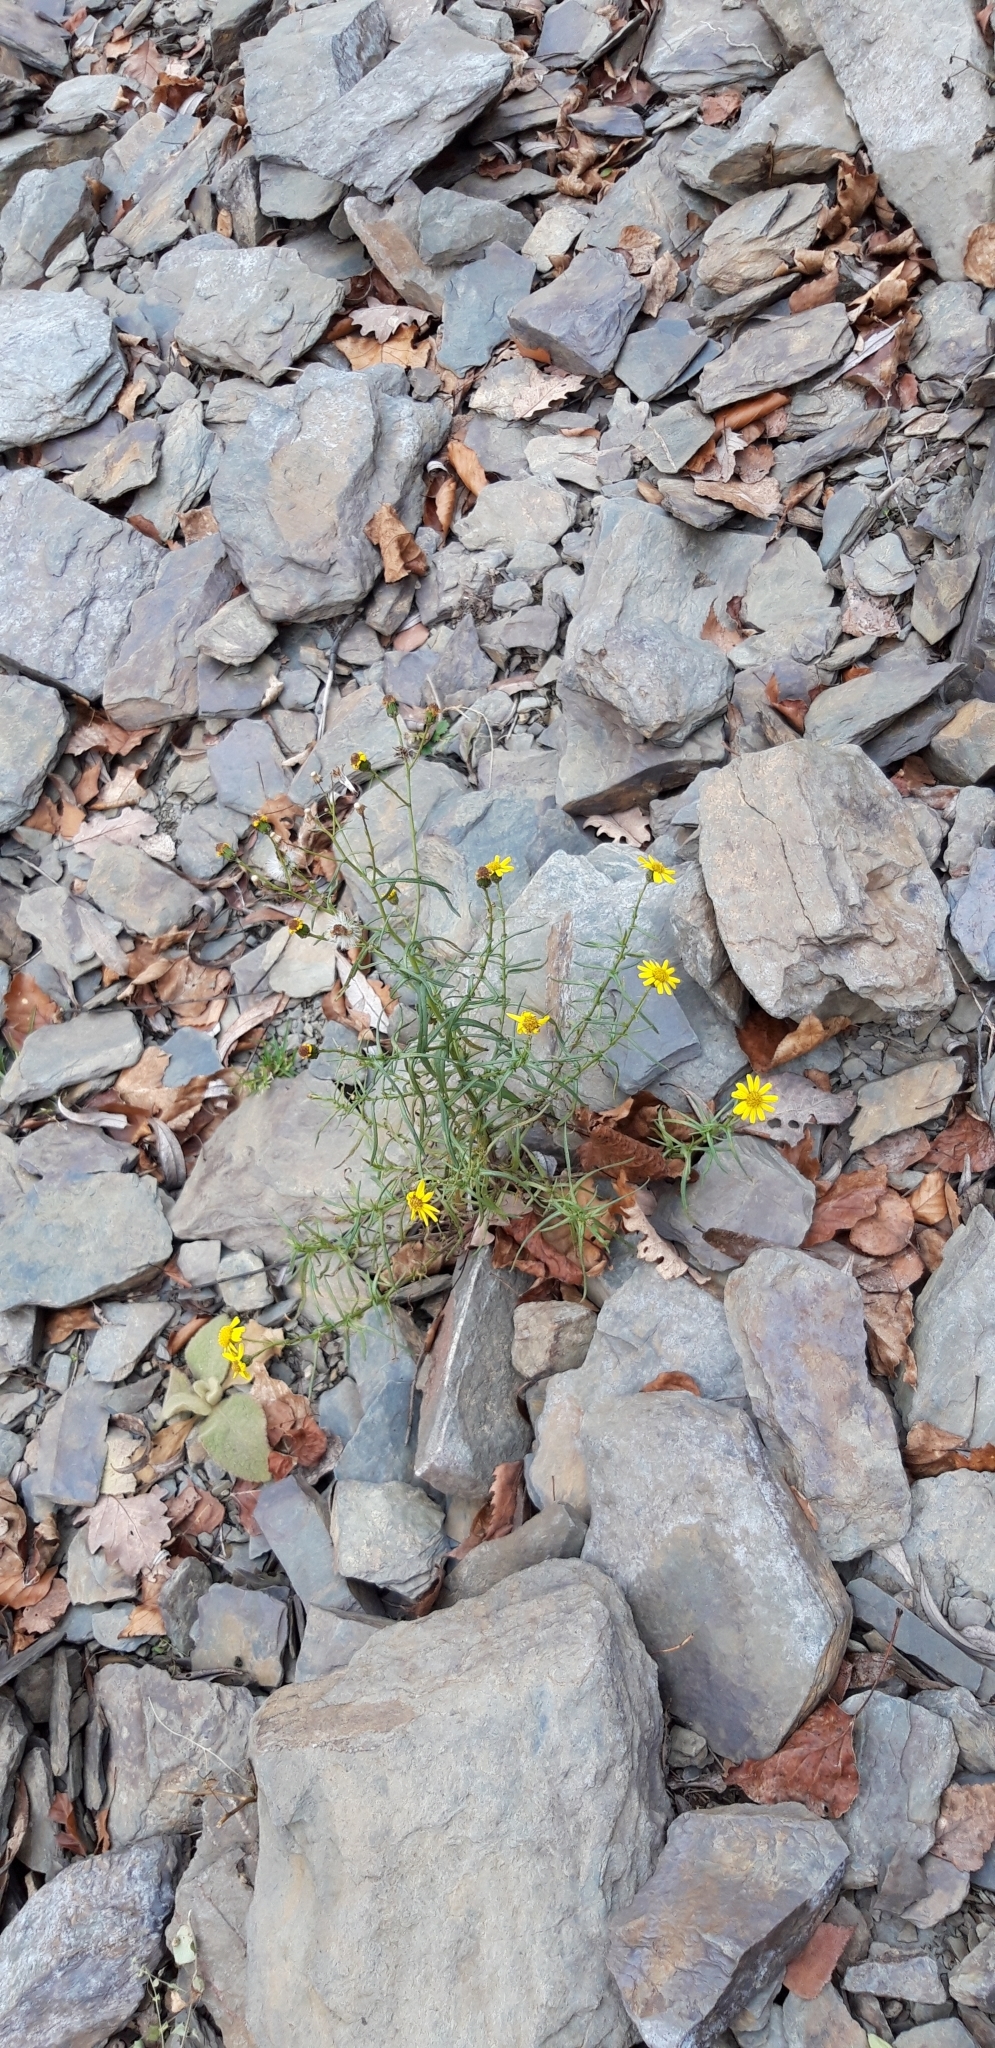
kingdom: Plantae
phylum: Tracheophyta
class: Magnoliopsida
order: Asterales
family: Asteraceae
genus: Senecio
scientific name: Senecio inaequidens
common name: Narrow-leaved ragwort
